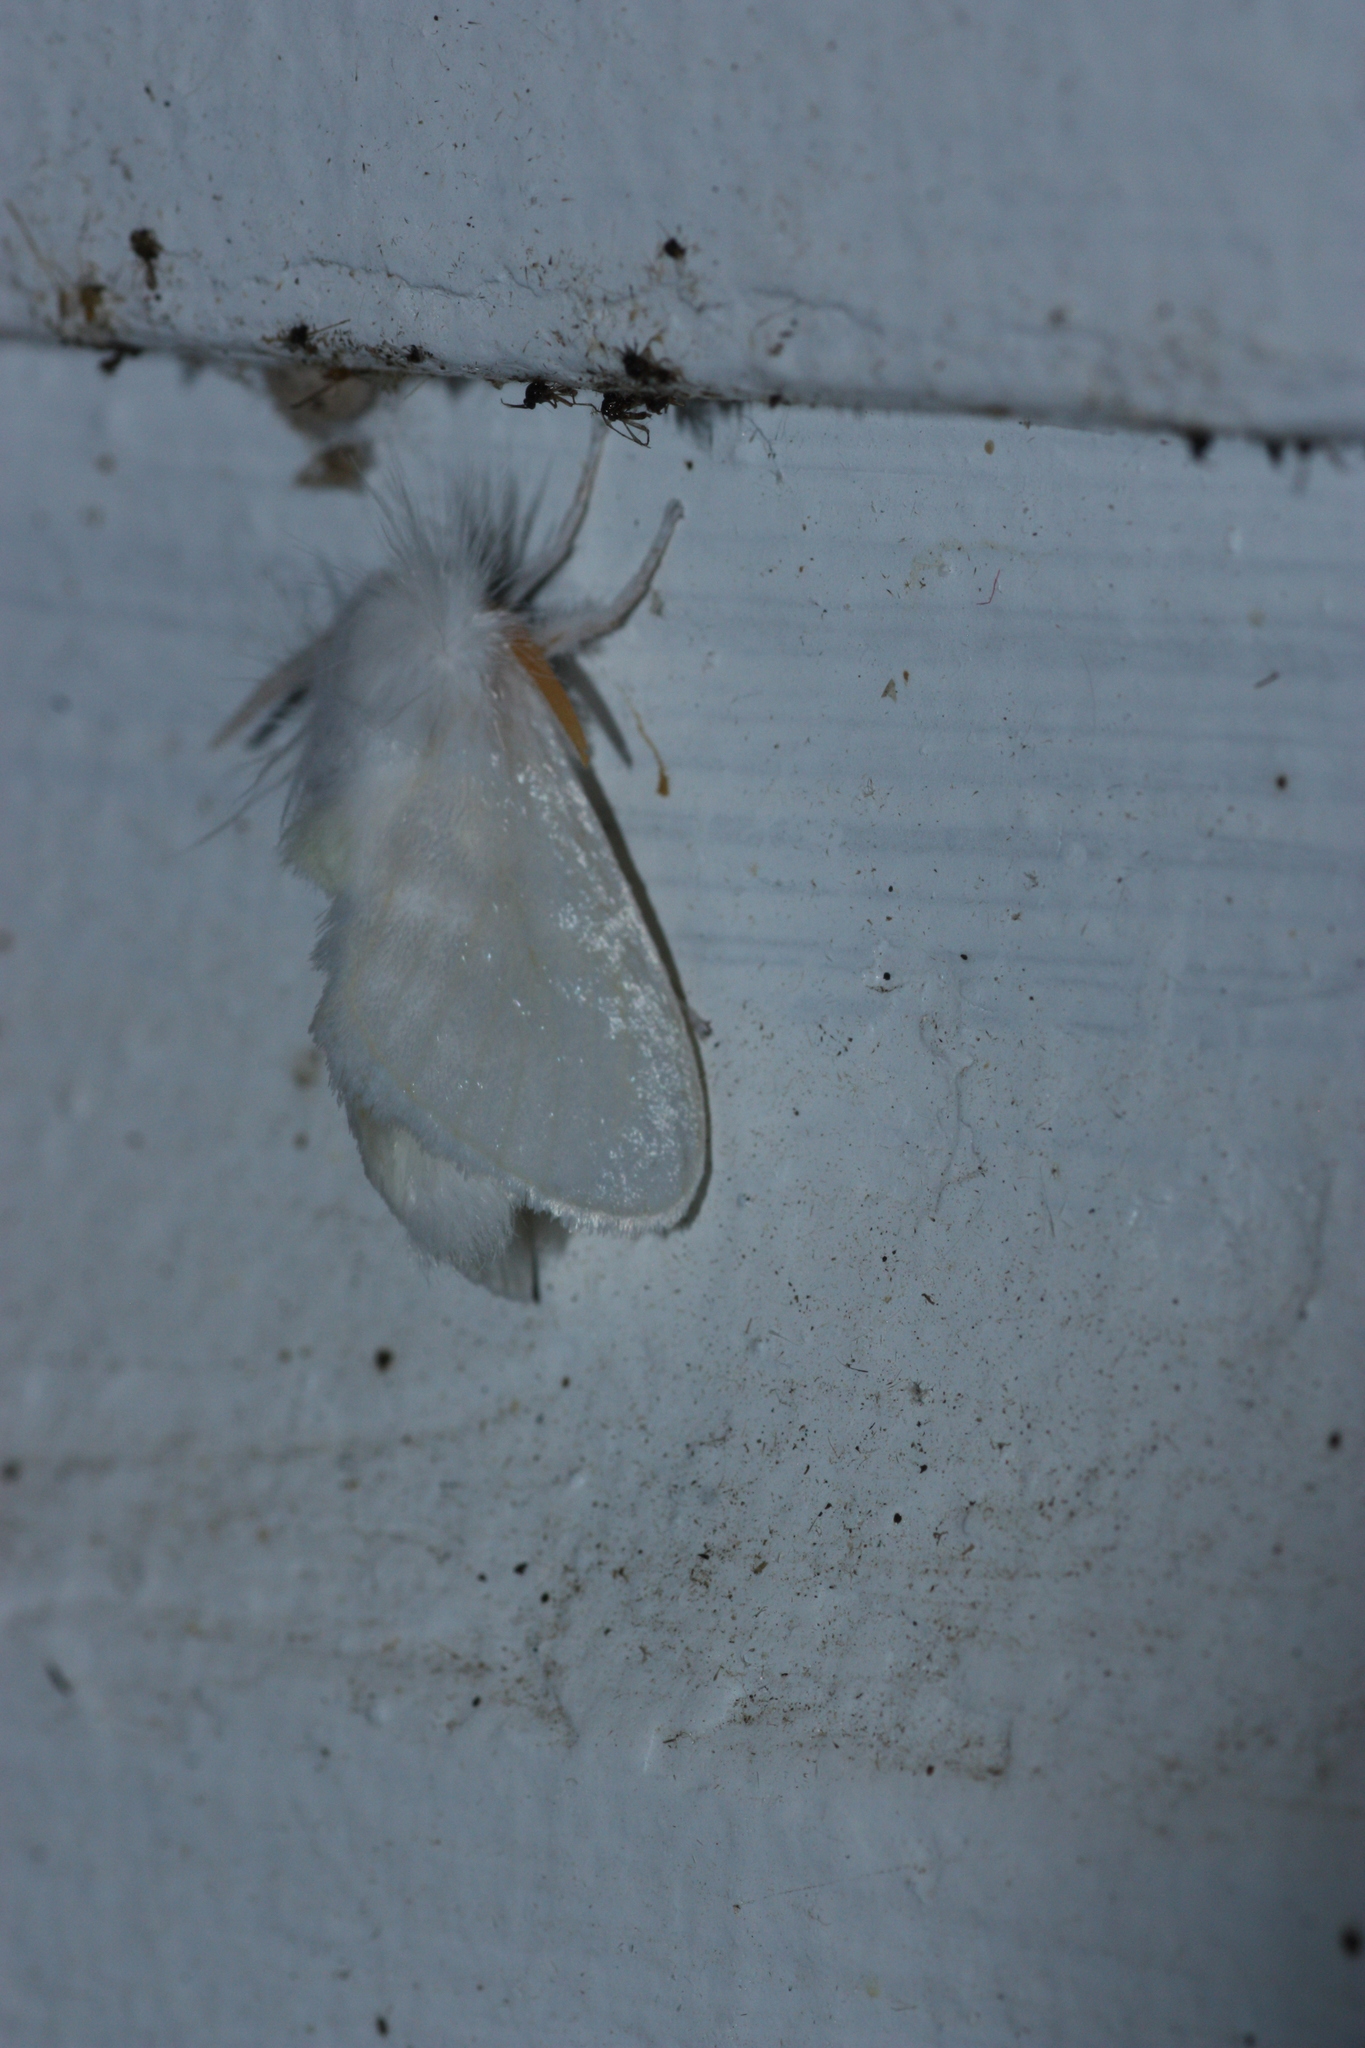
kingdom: Animalia
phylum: Arthropoda
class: Insecta
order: Lepidoptera
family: Megalopygidae
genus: Norape
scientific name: Norape cretata
